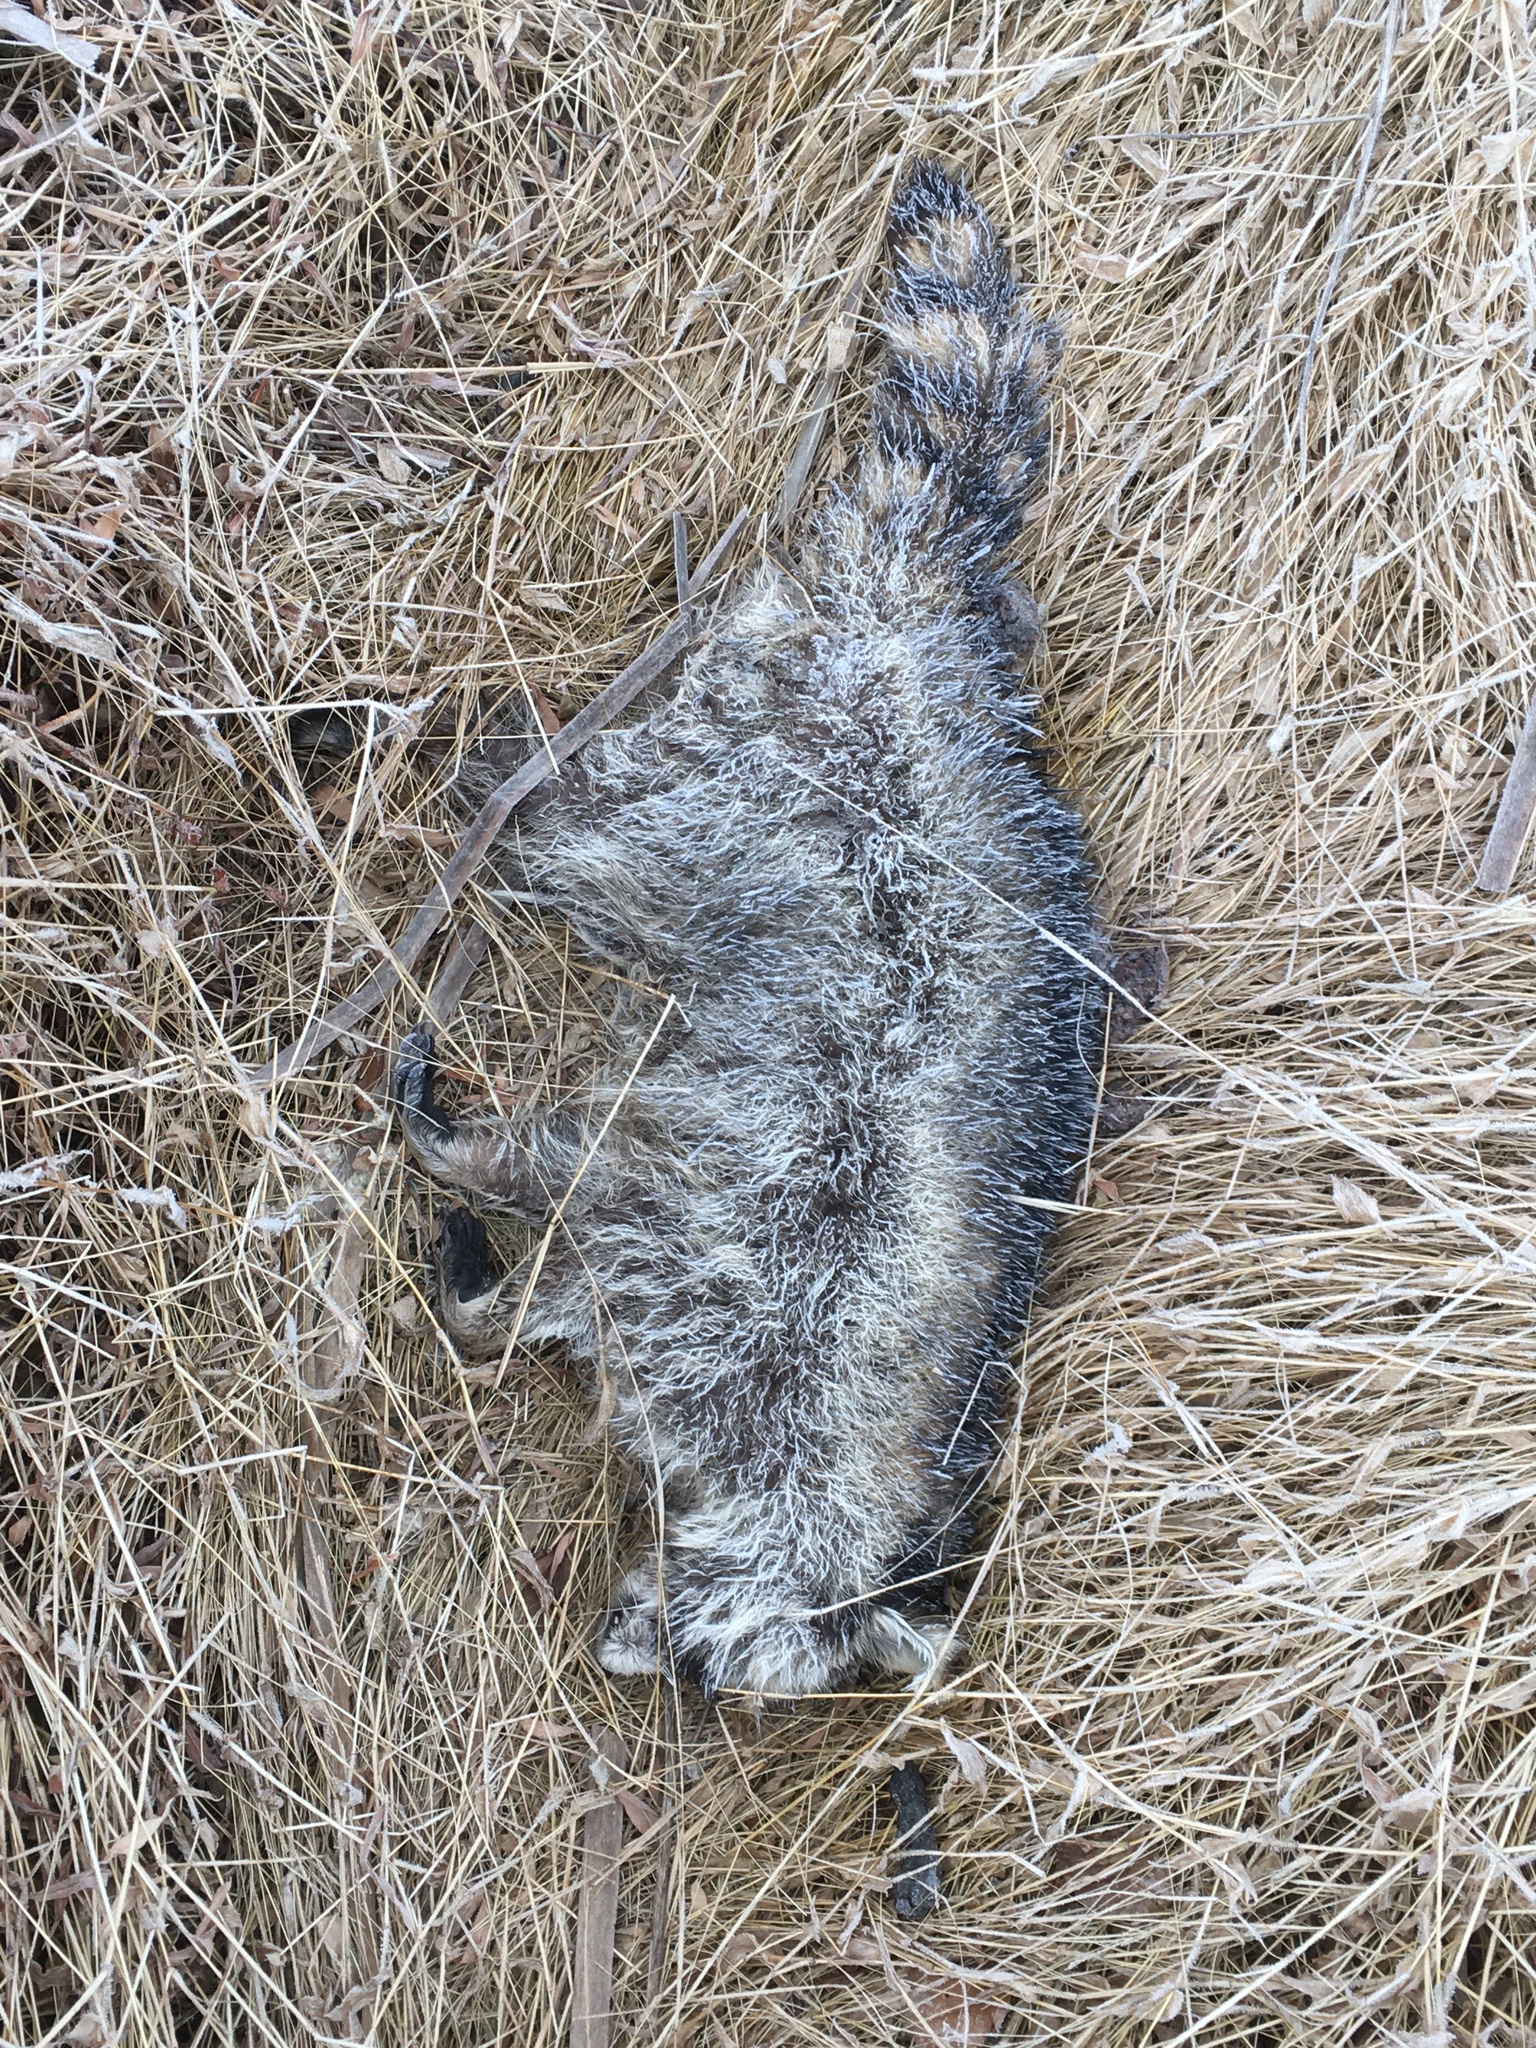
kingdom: Animalia
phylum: Chordata
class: Mammalia
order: Carnivora
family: Procyonidae
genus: Procyon
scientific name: Procyon lotor
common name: Raccoon
